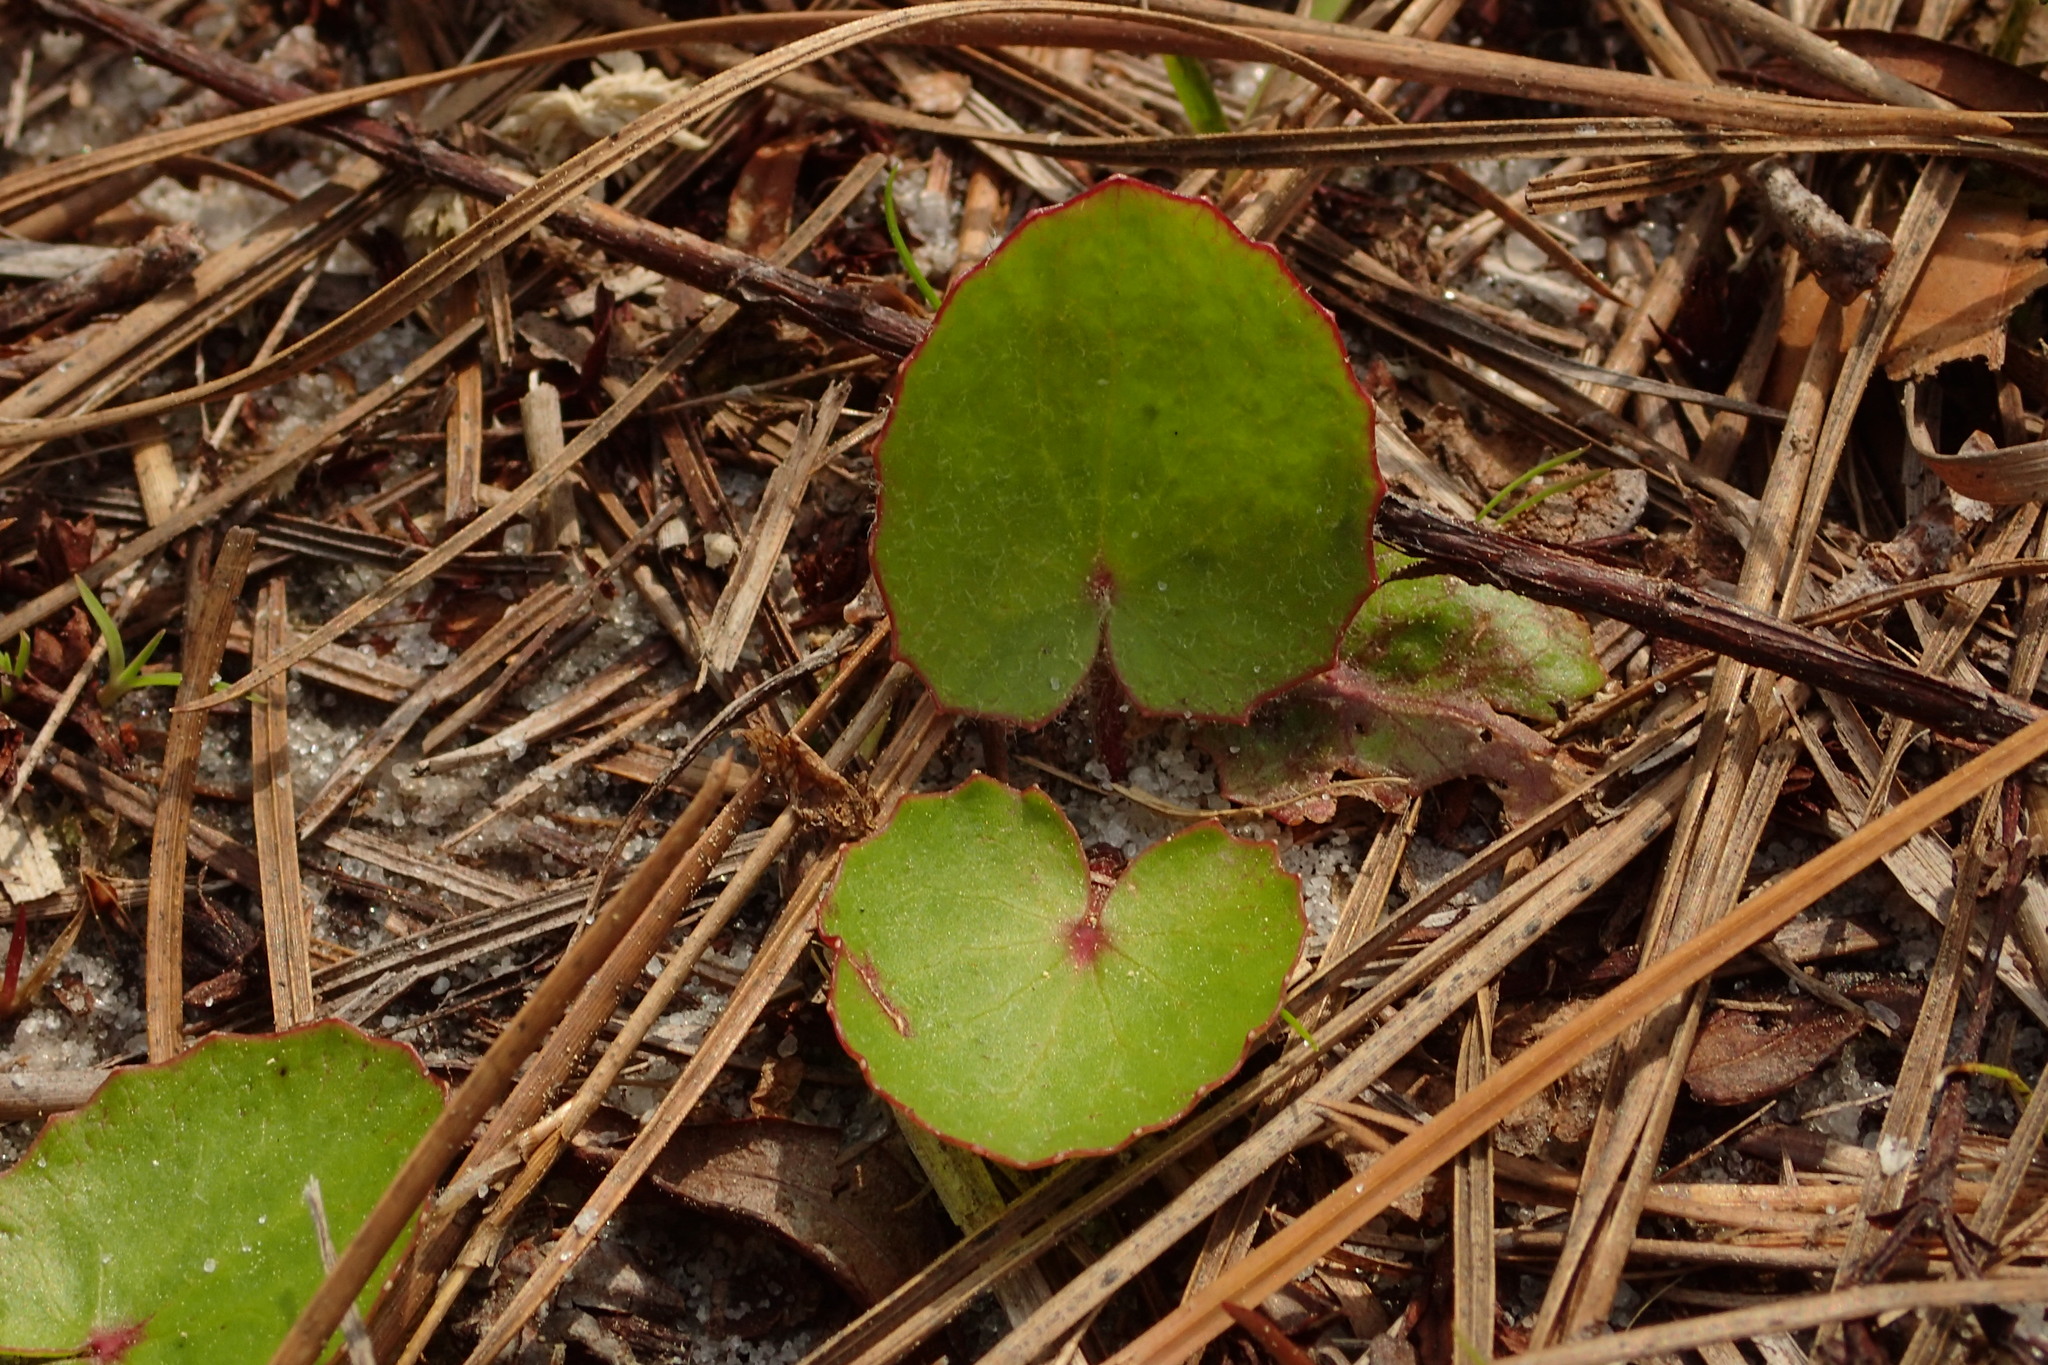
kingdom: Plantae
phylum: Tracheophyta
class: Magnoliopsida
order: Apiales
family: Apiaceae
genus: Centella
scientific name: Centella asiatica
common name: Spadeleaf
